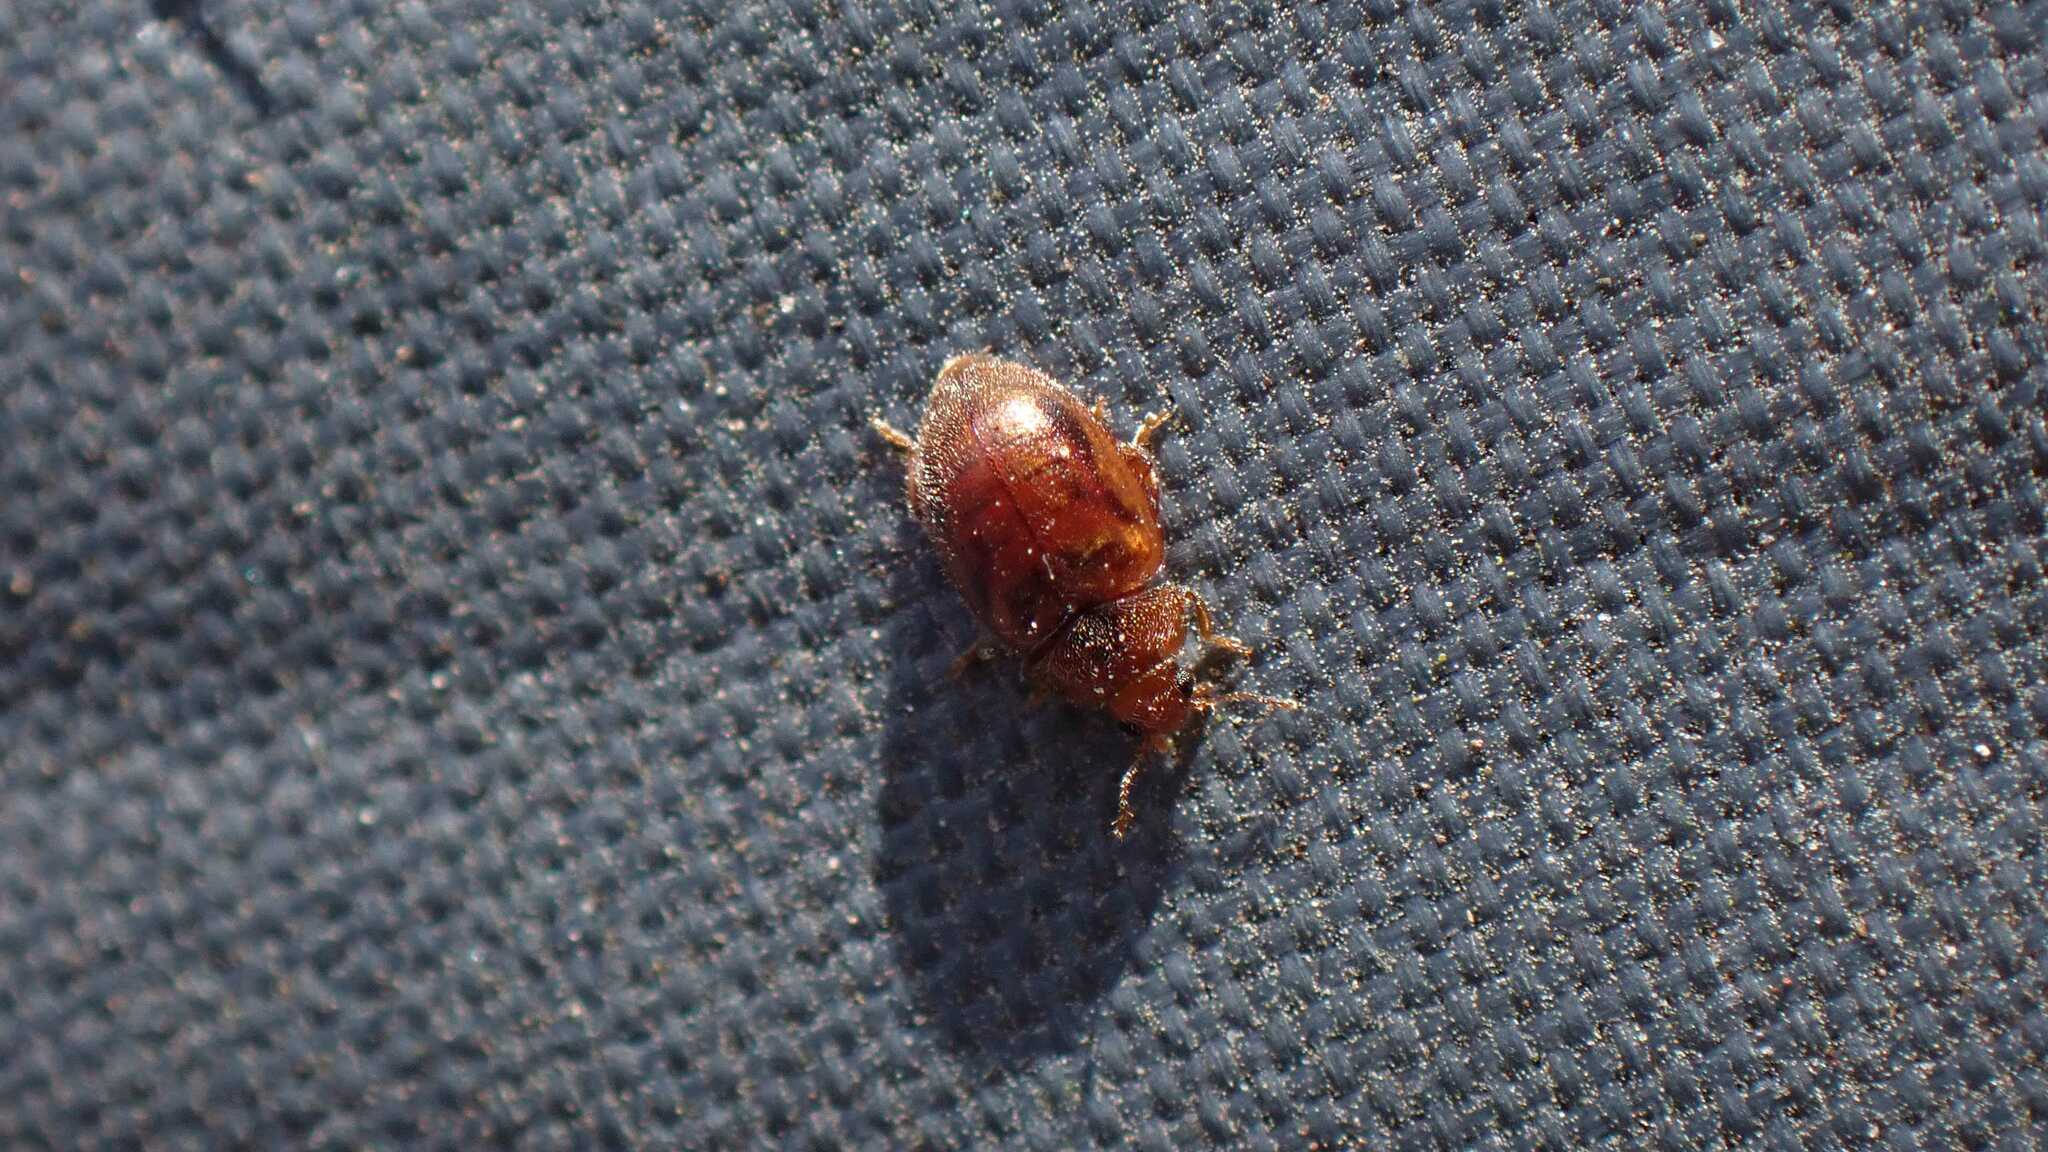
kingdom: Animalia
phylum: Arthropoda
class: Insecta
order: Coleoptera
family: Coccinellidae
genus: Rhyzobius
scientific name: Rhyzobius chrysomeloides
